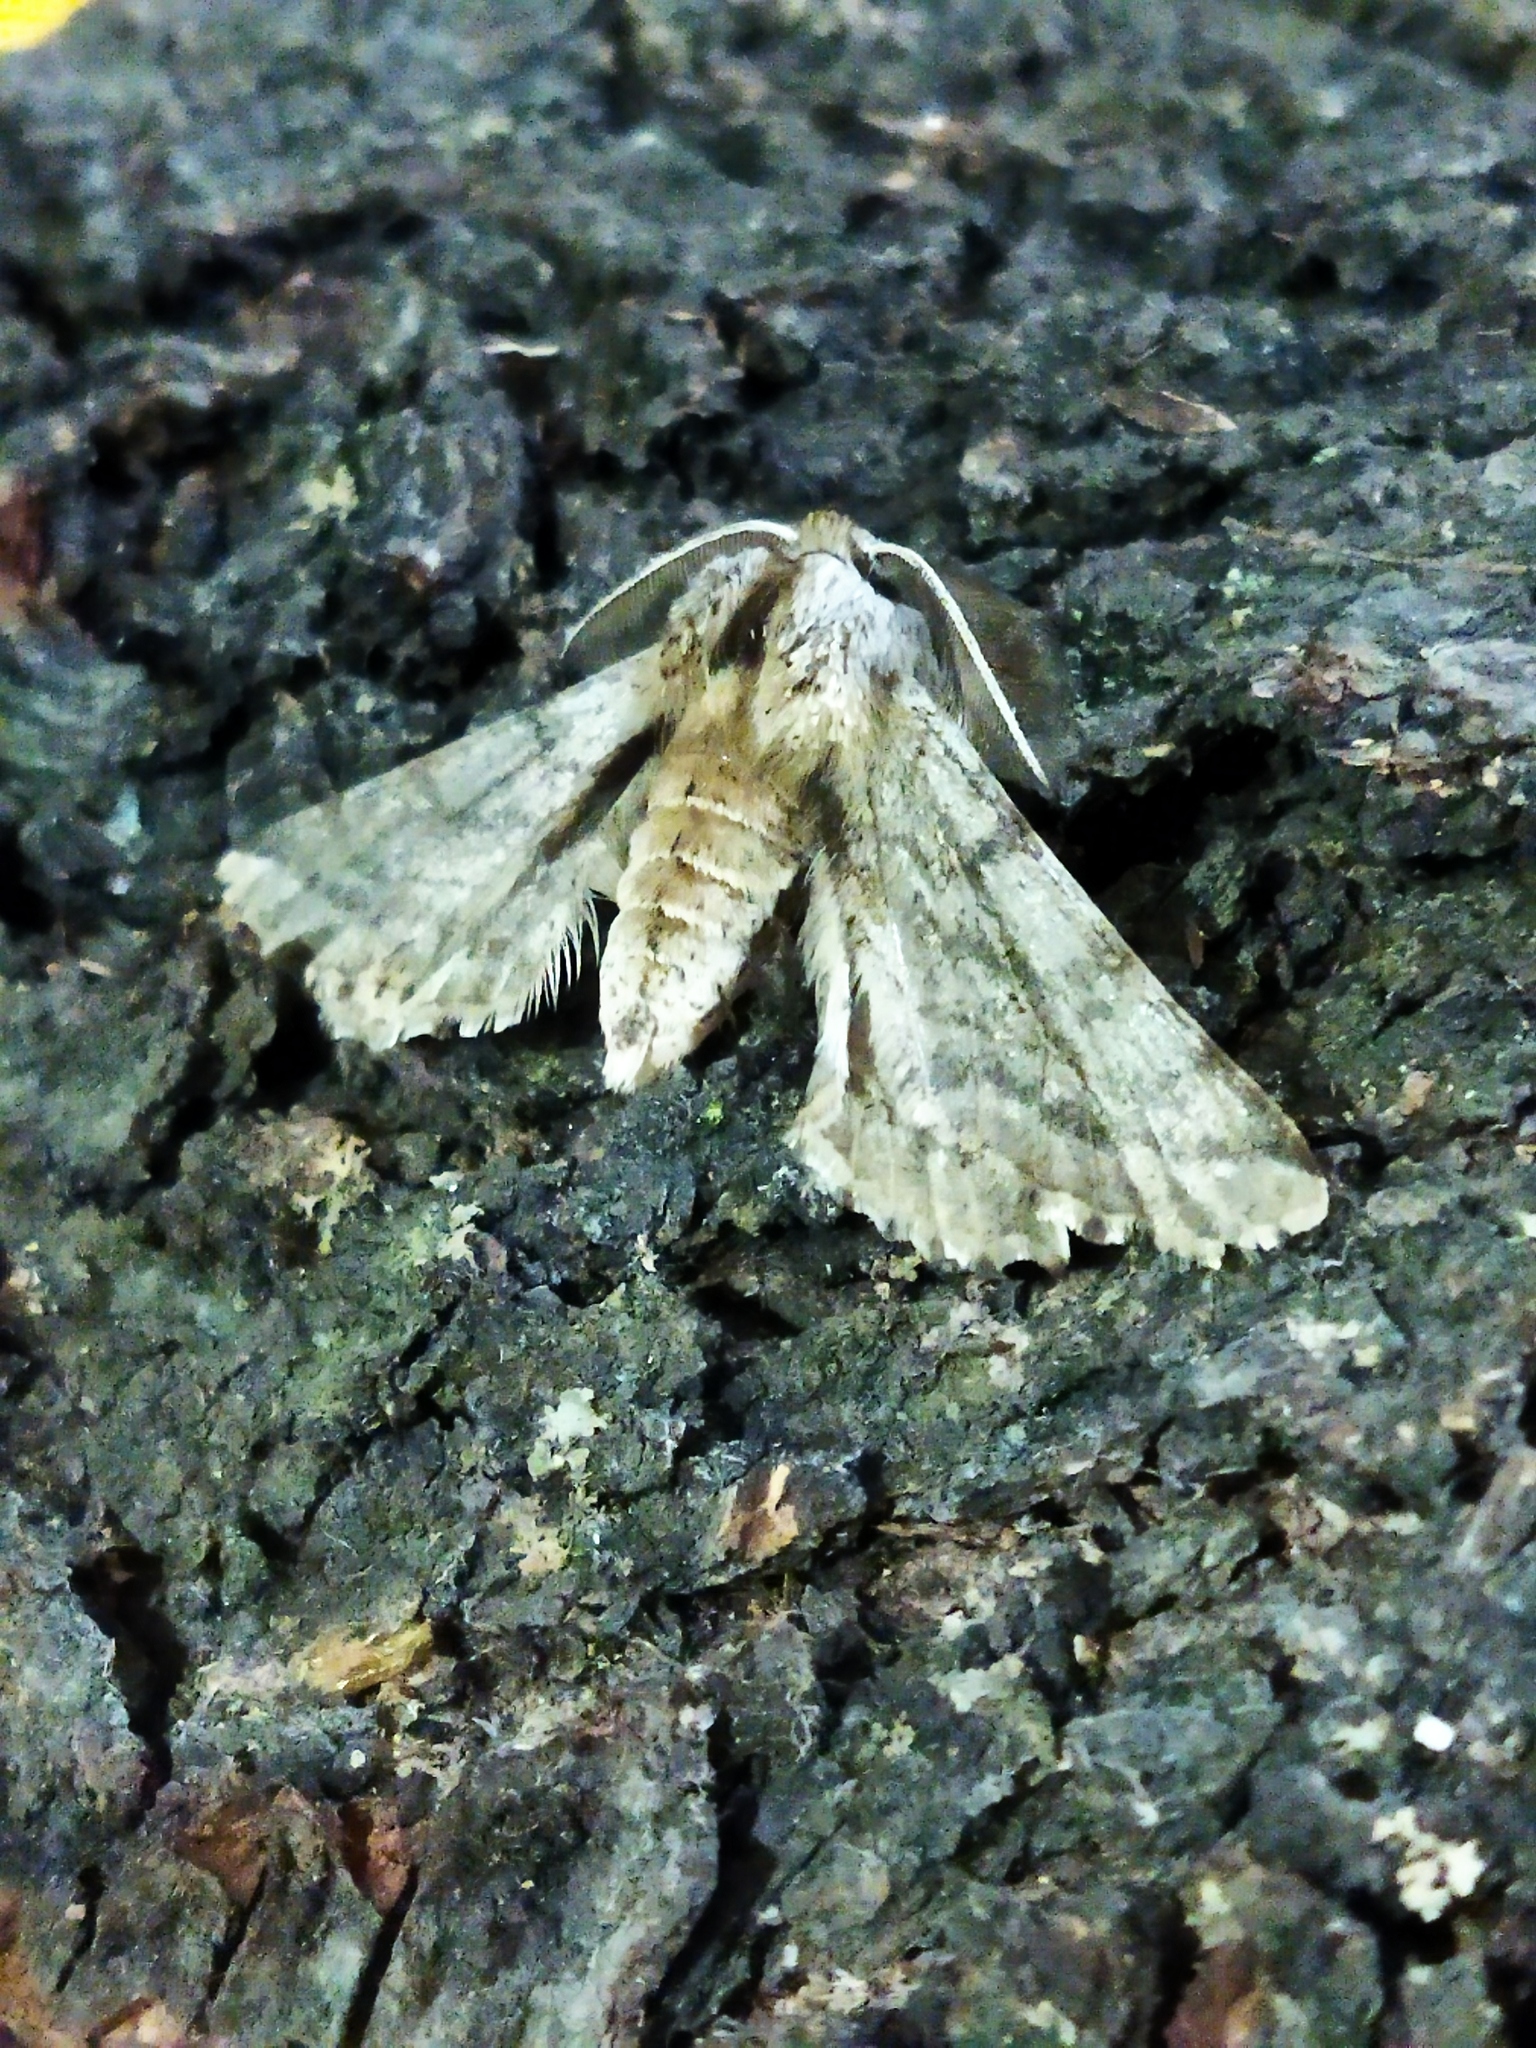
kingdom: Animalia
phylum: Arthropoda
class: Insecta
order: Lepidoptera
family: Geometridae
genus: Apochima
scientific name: Apochima flabellaria
